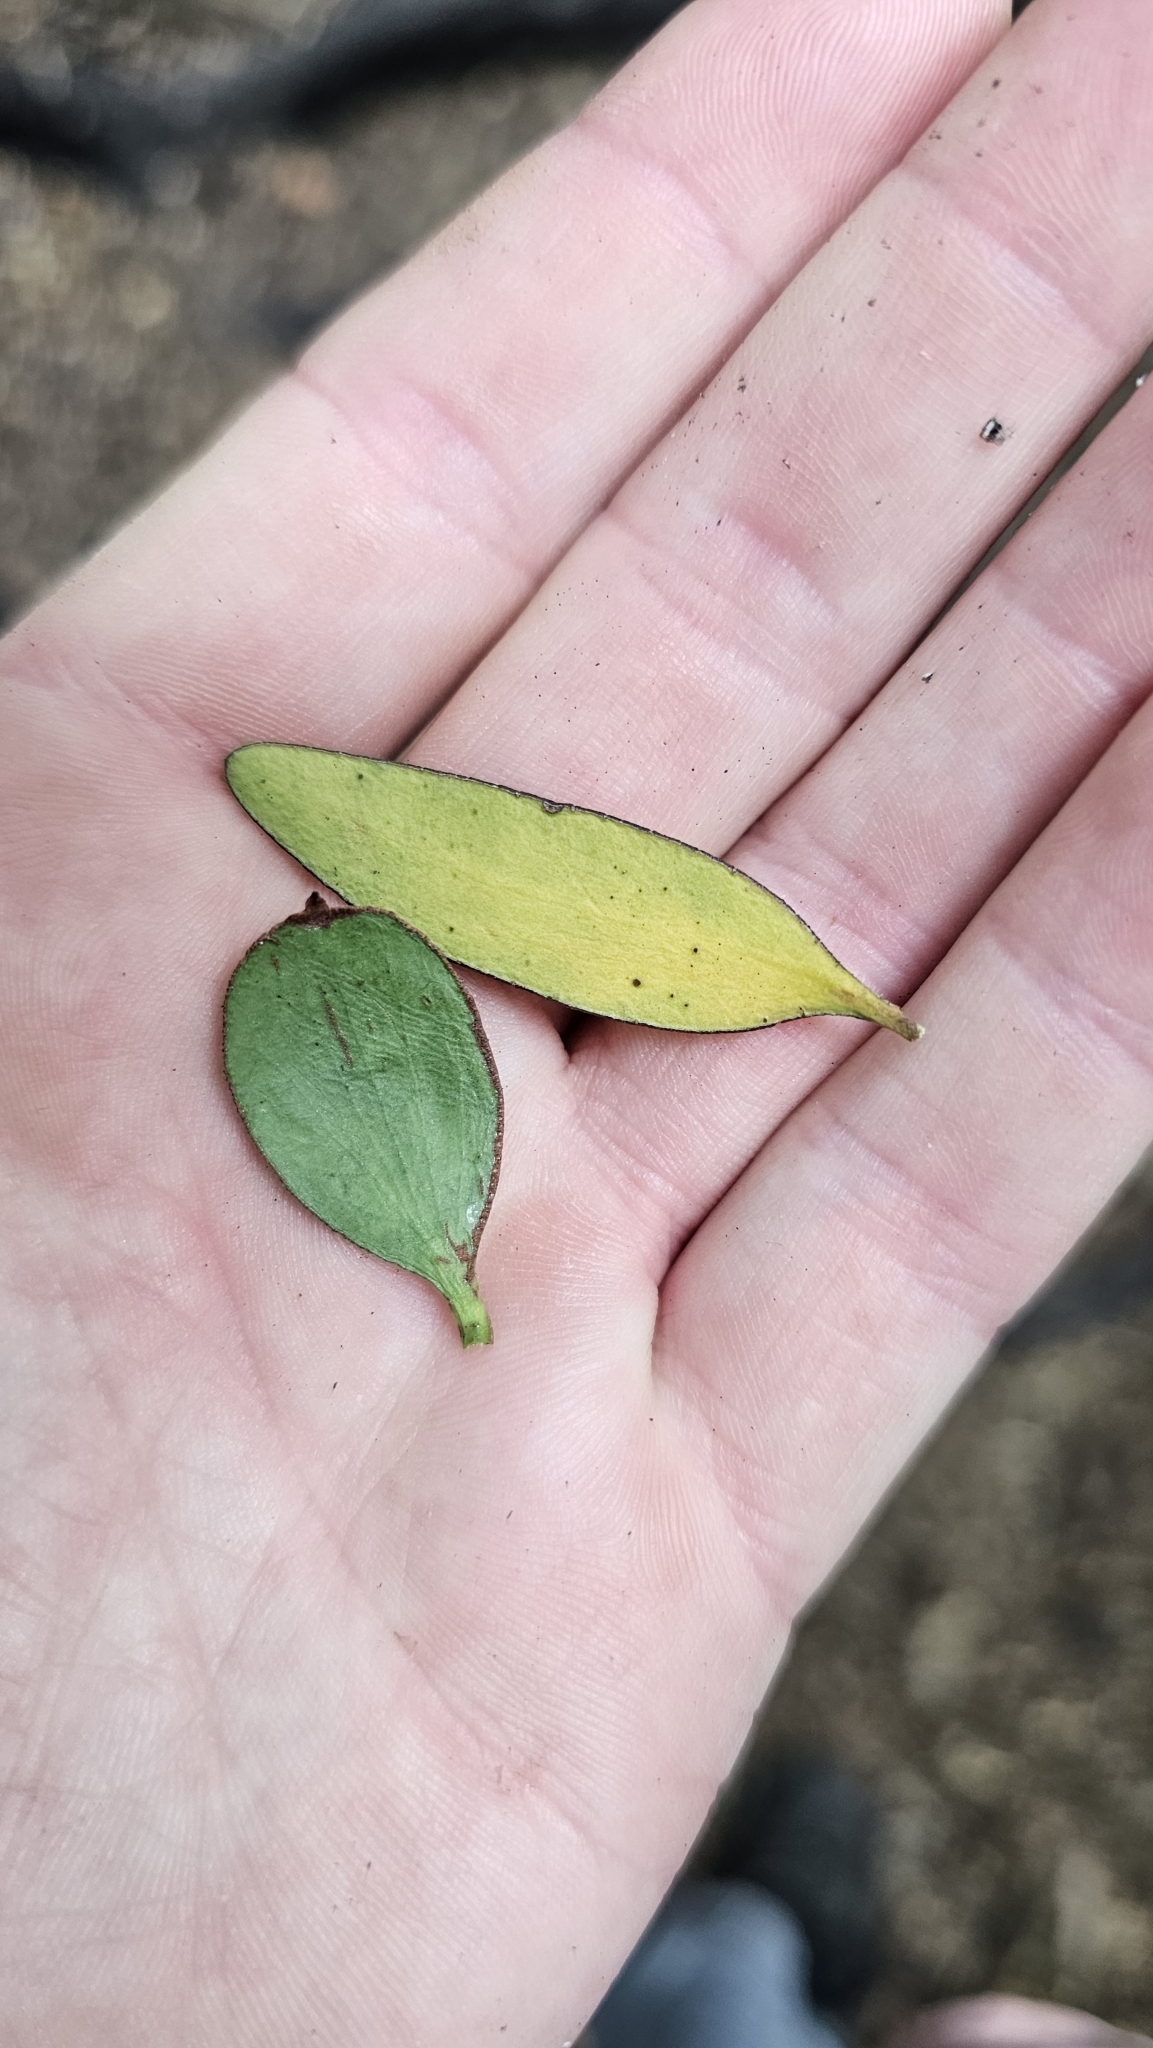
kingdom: Plantae
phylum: Tracheophyta
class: Magnoliopsida
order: Santalales
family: Loranthaceae
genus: Alepis
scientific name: Alepis flavida
